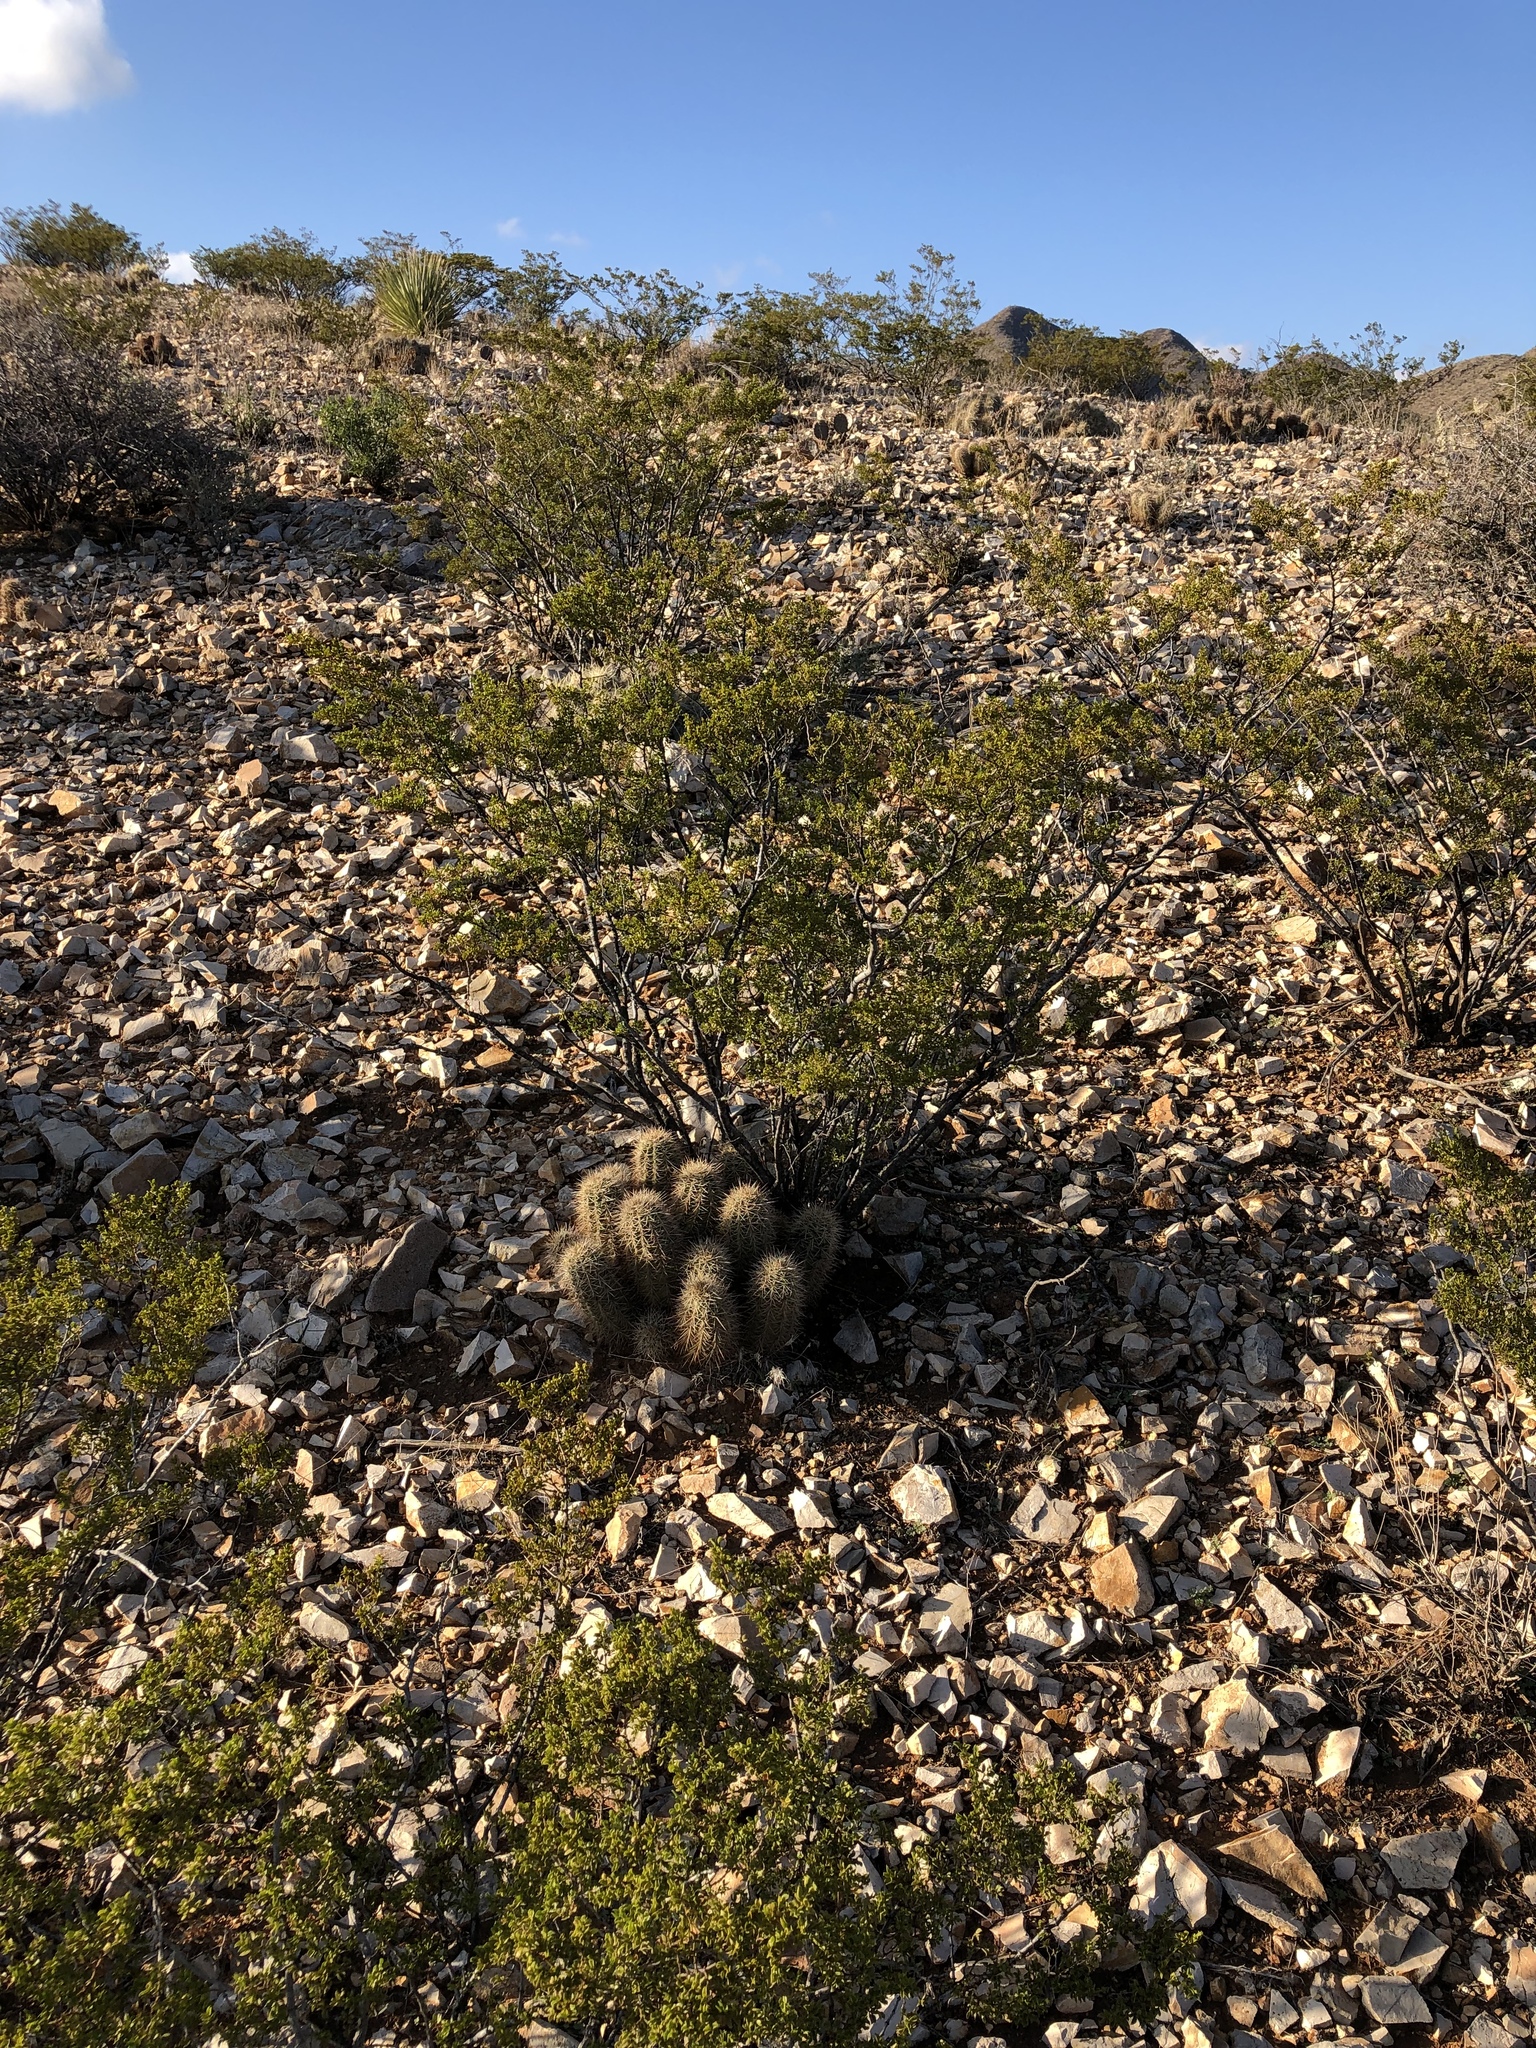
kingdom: Plantae
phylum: Tracheophyta
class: Magnoliopsida
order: Caryophyllales
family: Cactaceae
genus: Echinocereus
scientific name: Echinocereus coccineus
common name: Scarlet hedgehog cactus
